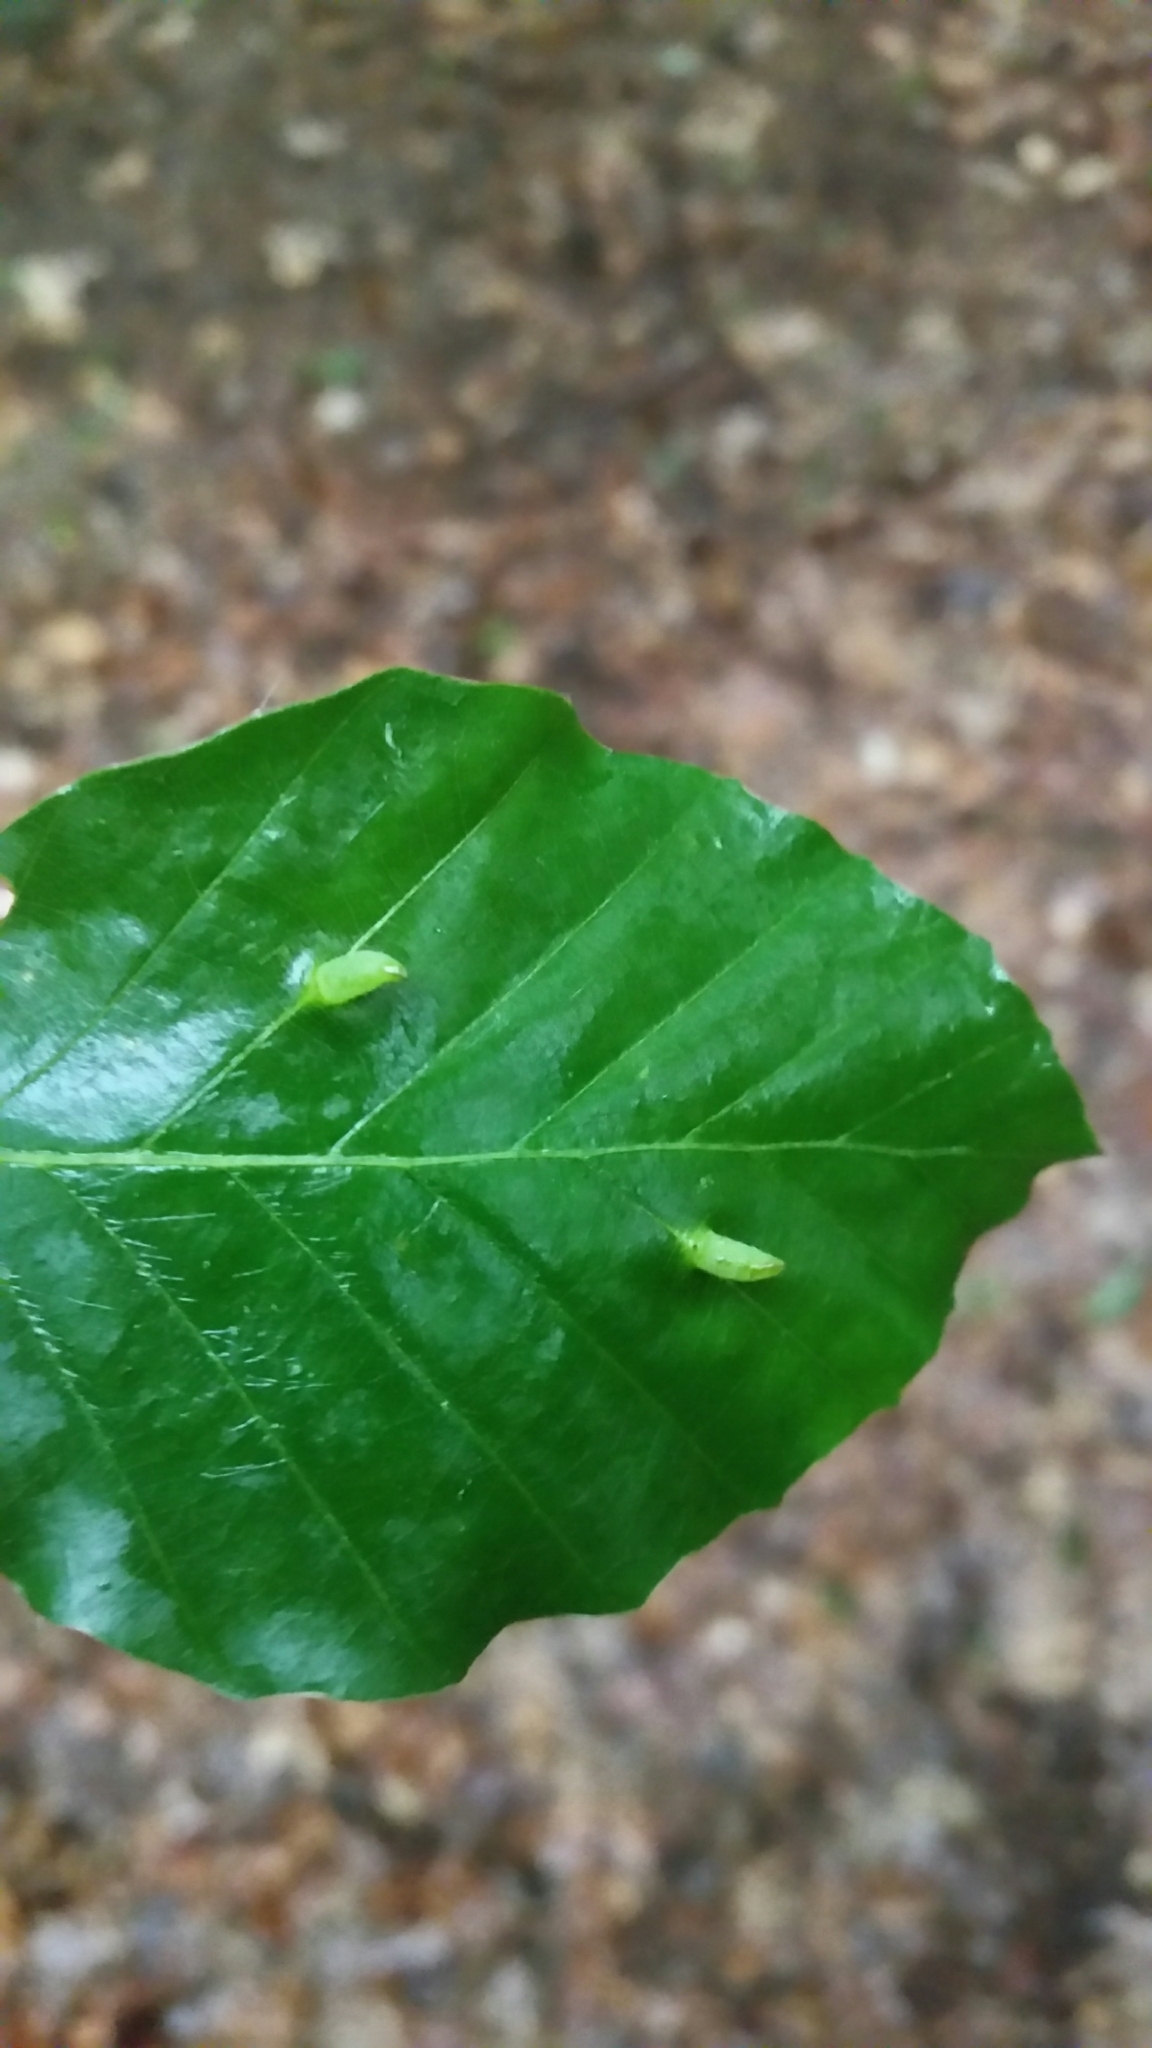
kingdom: Animalia
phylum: Arthropoda
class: Insecta
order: Diptera
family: Cecidomyiidae
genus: Mikiola
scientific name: Mikiola fagi
